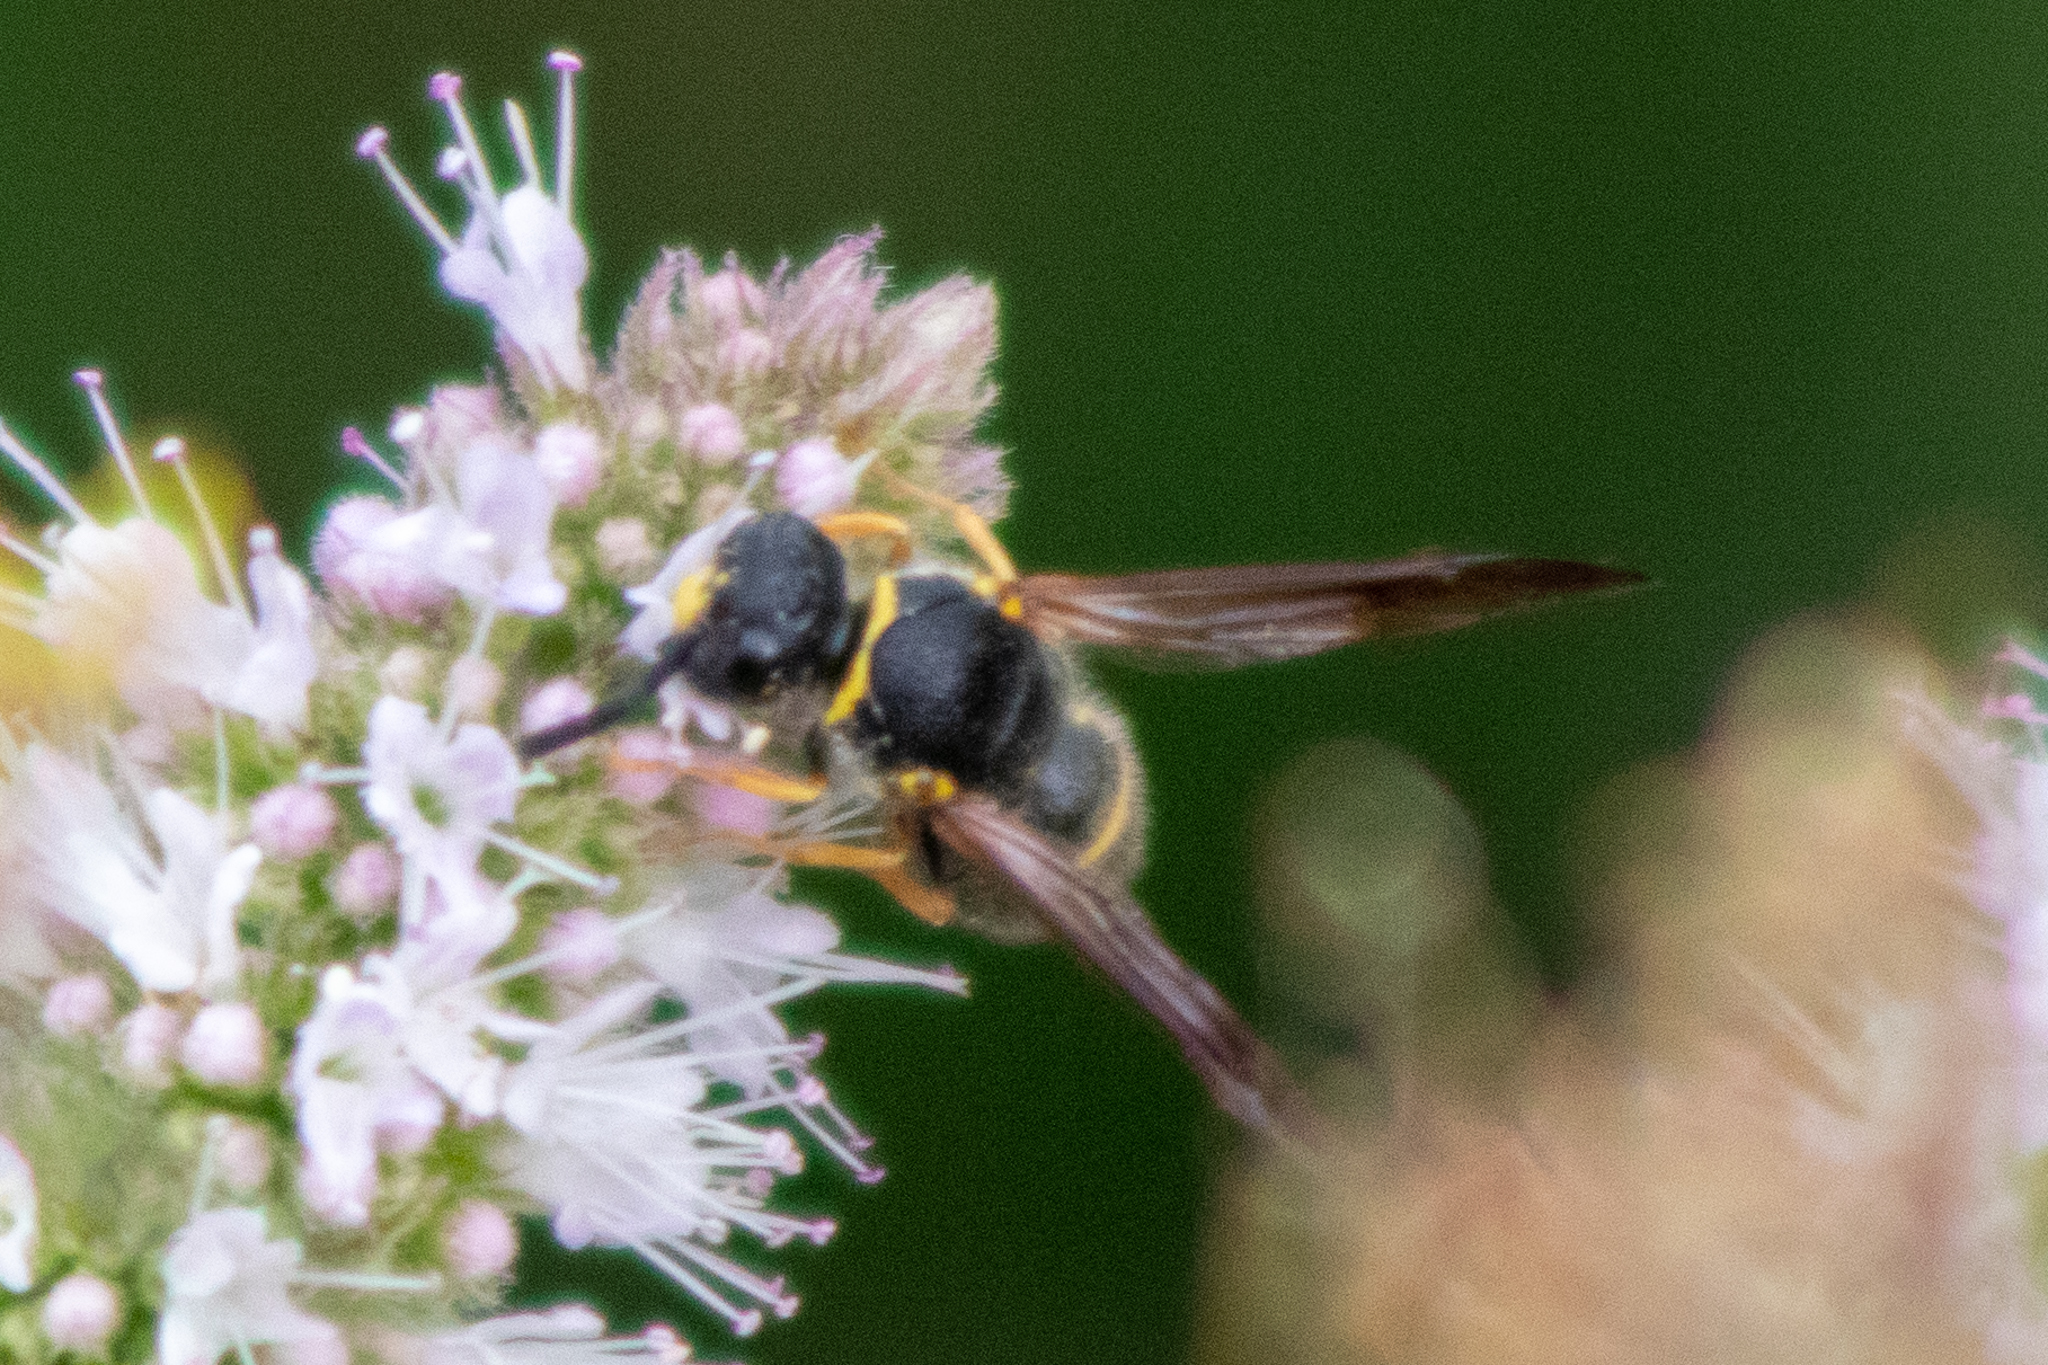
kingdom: Animalia
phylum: Arthropoda
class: Insecta
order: Hymenoptera
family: Vespidae
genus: Ancistrocerus
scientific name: Ancistrocerus campestris
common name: Smiling mason wasp
